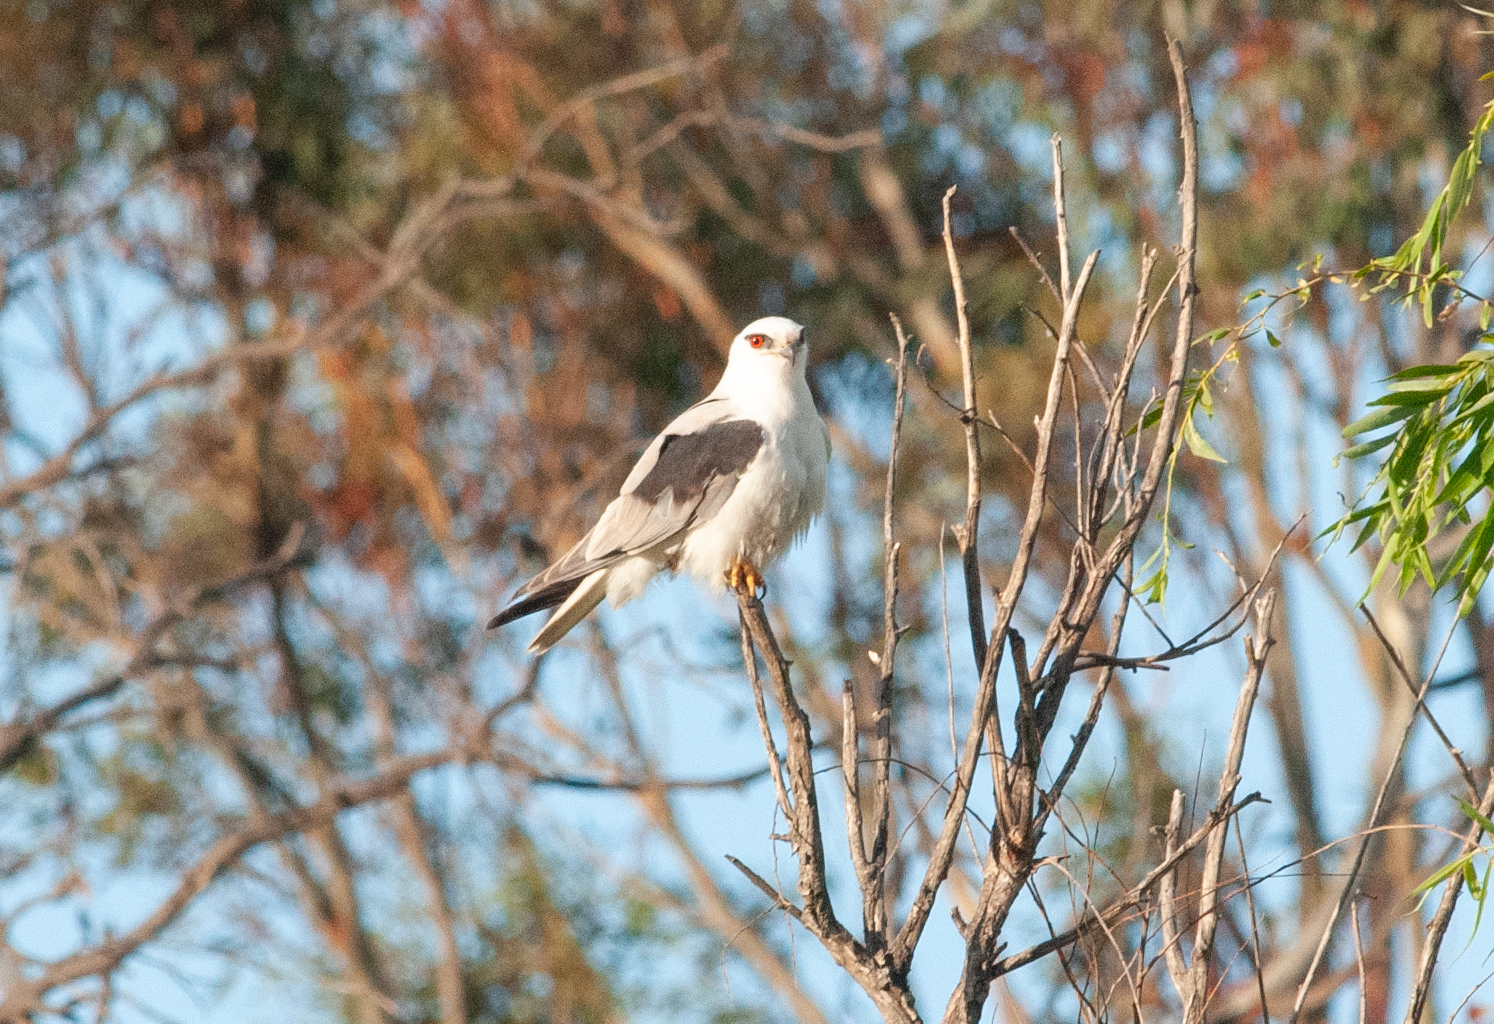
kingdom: Animalia
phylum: Chordata
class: Aves
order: Accipitriformes
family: Accipitridae
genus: Elanus
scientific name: Elanus axillaris
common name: Black-shouldered kite
